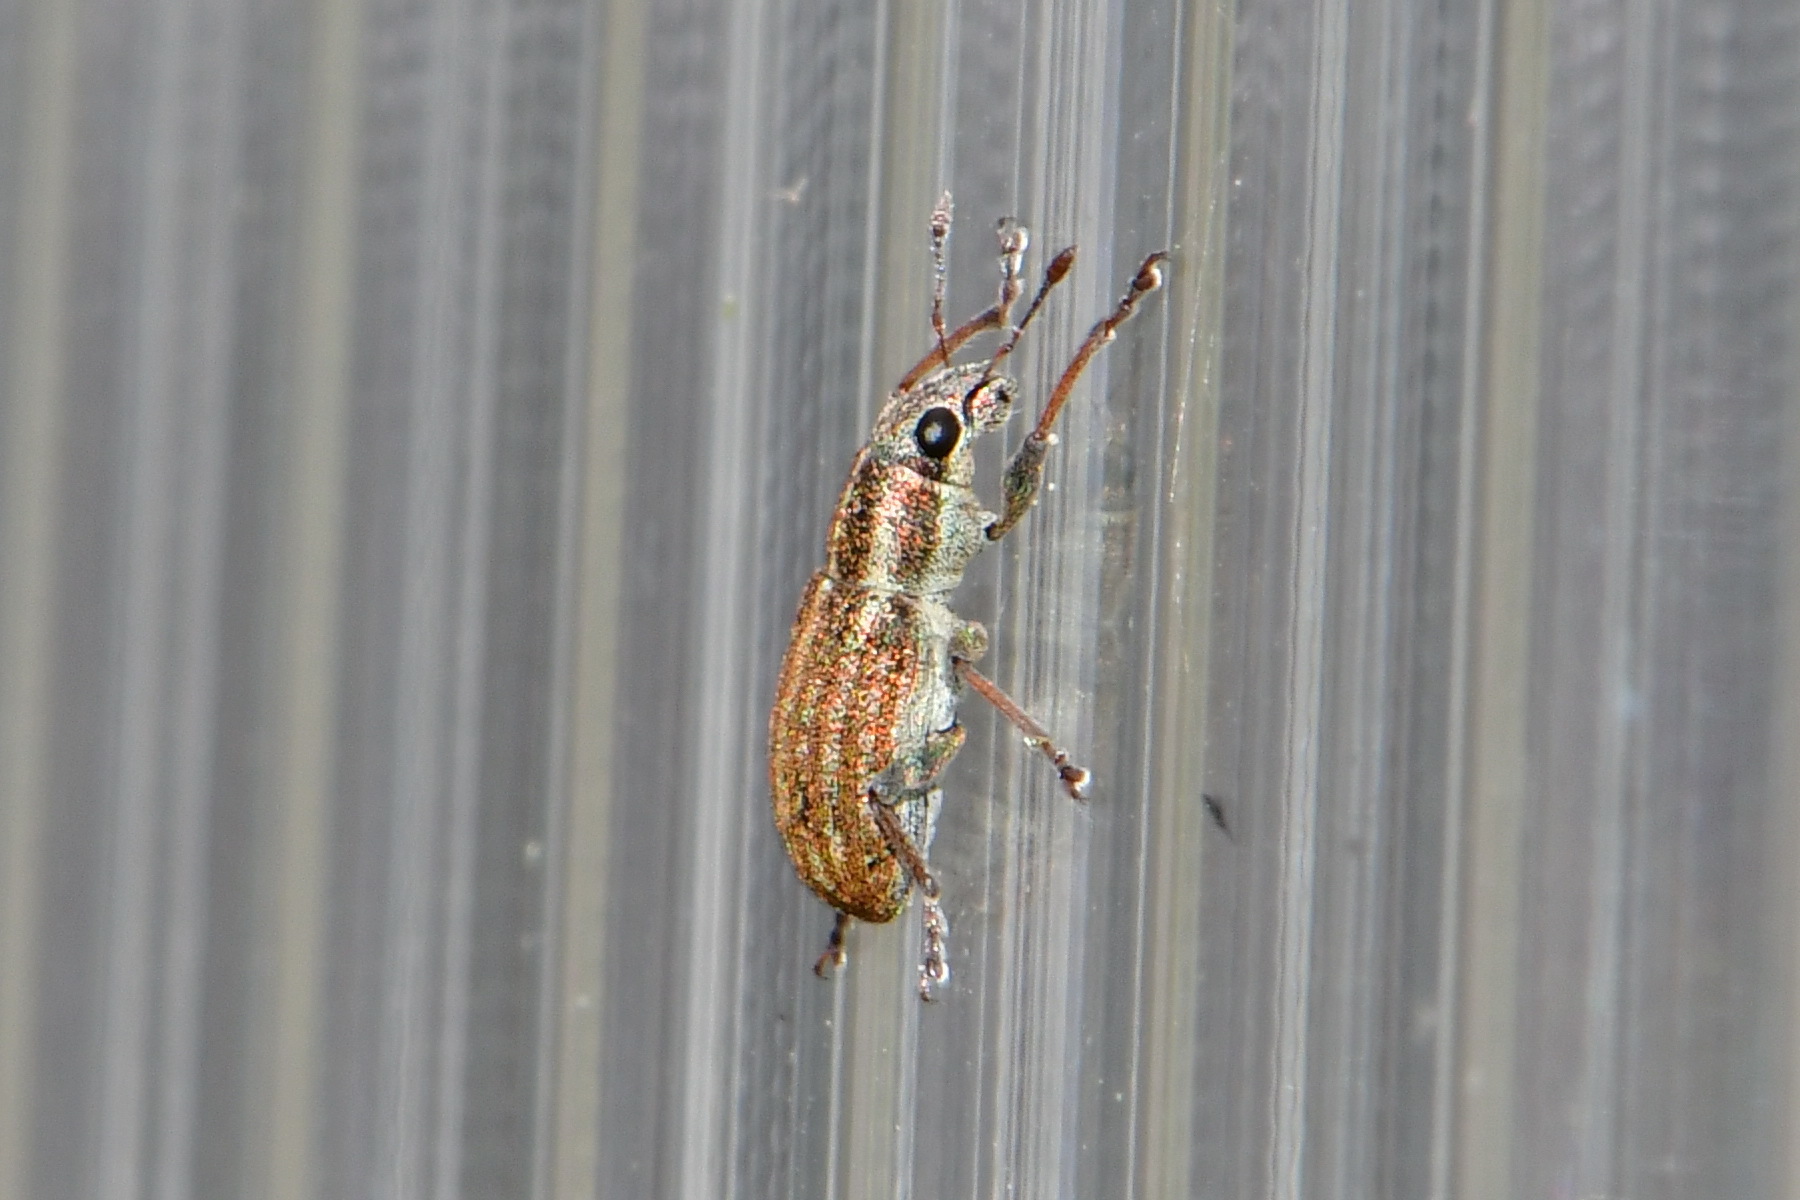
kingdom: Animalia
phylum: Arthropoda
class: Insecta
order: Coleoptera
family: Curculionidae
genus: Sitona
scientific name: Sitona lineatus
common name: Weevil
